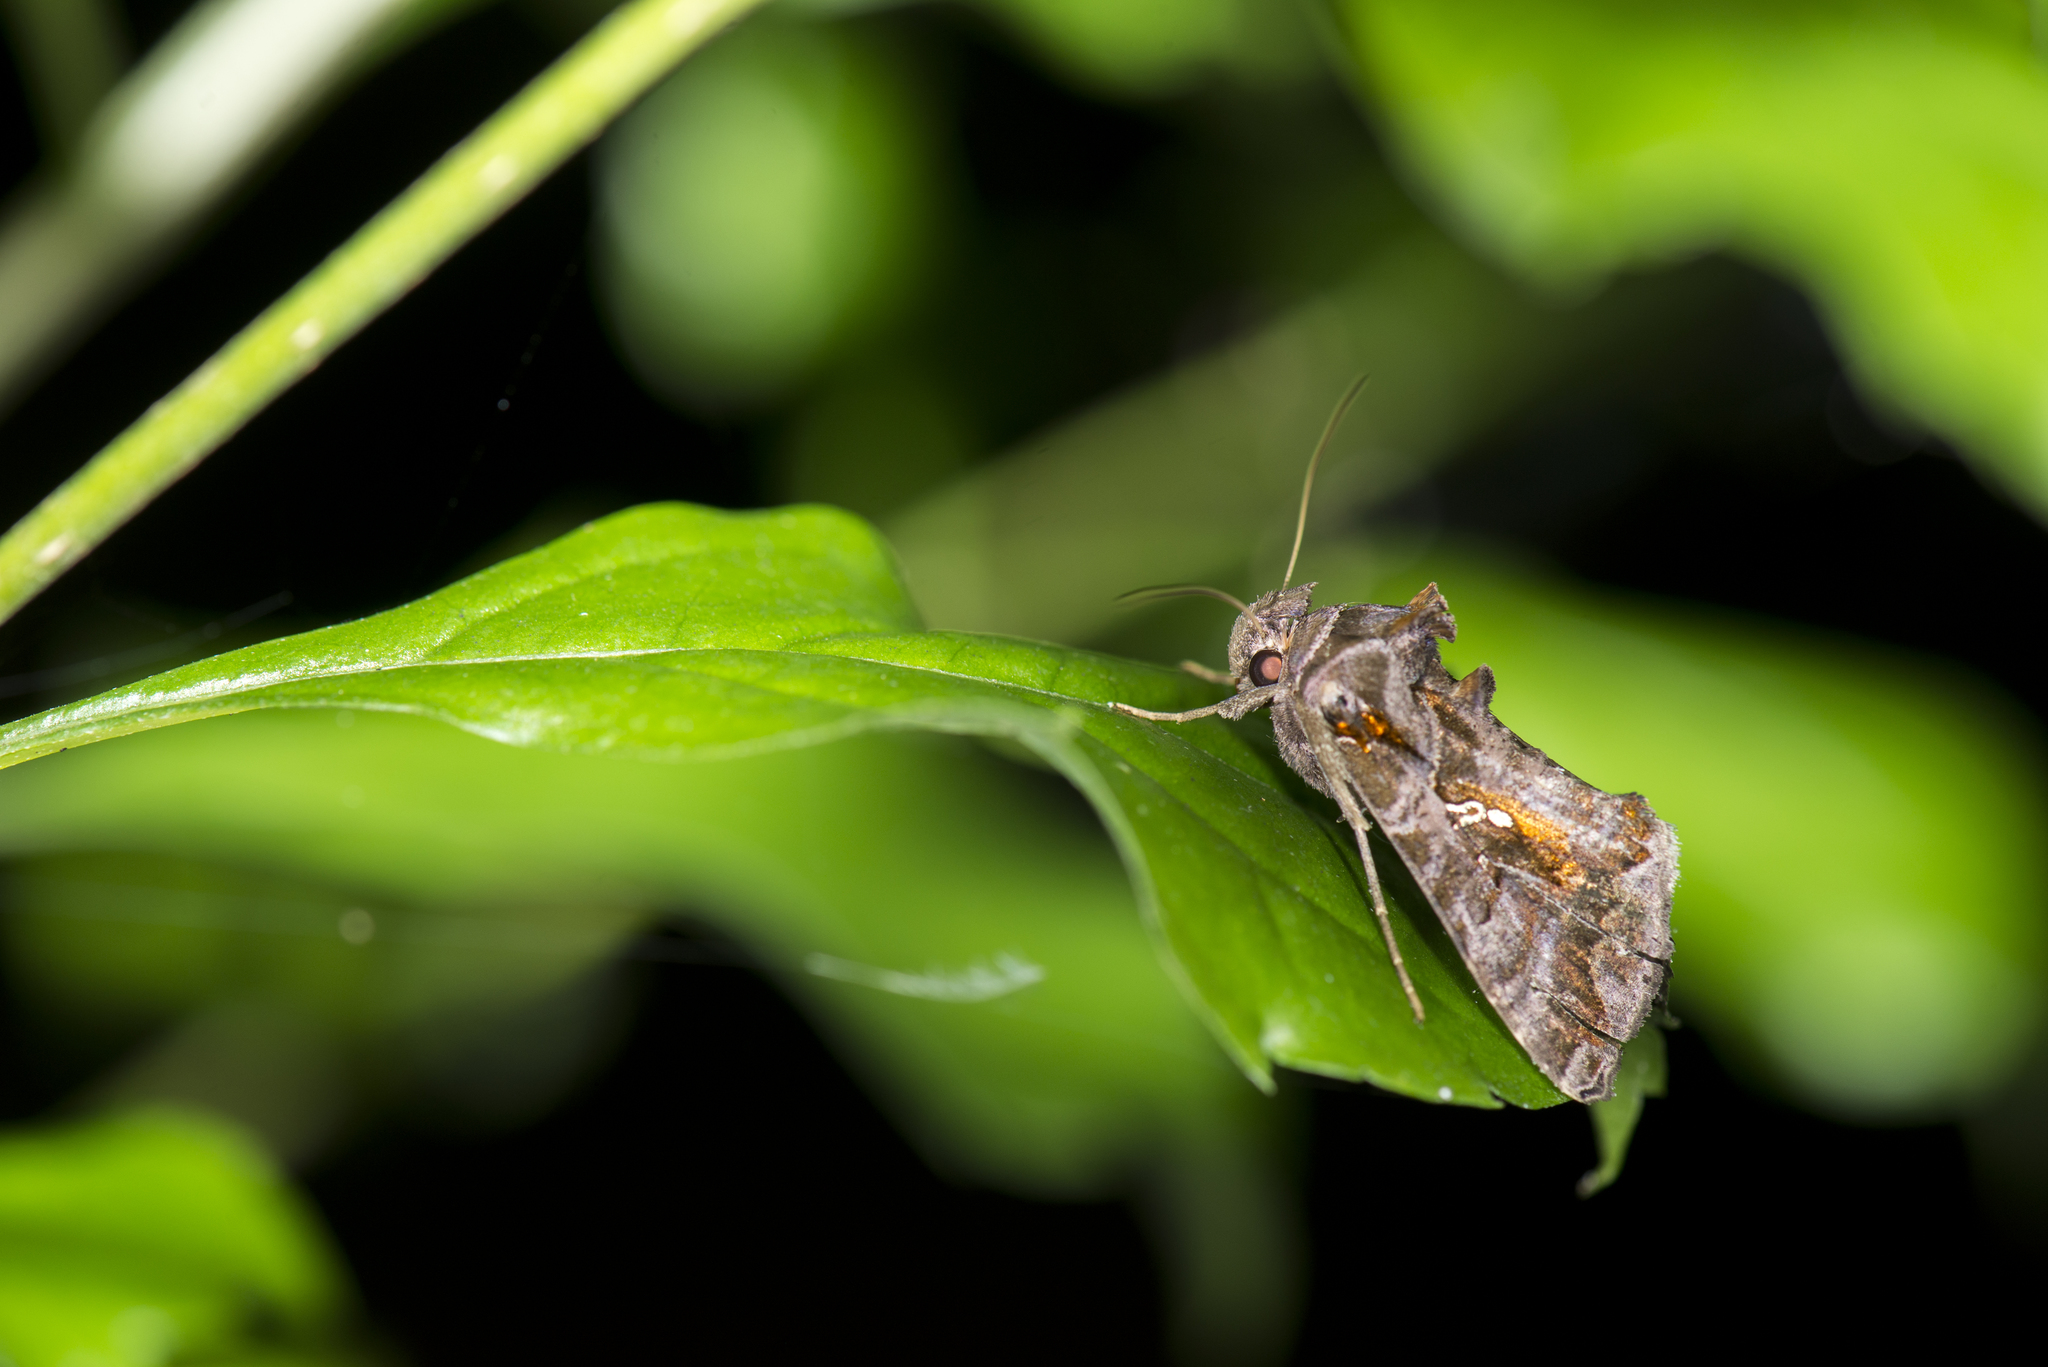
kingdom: Animalia
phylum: Arthropoda
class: Insecta
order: Lepidoptera
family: Noctuidae
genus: Plusiopalpa
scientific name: Plusiopalpa adrasta
